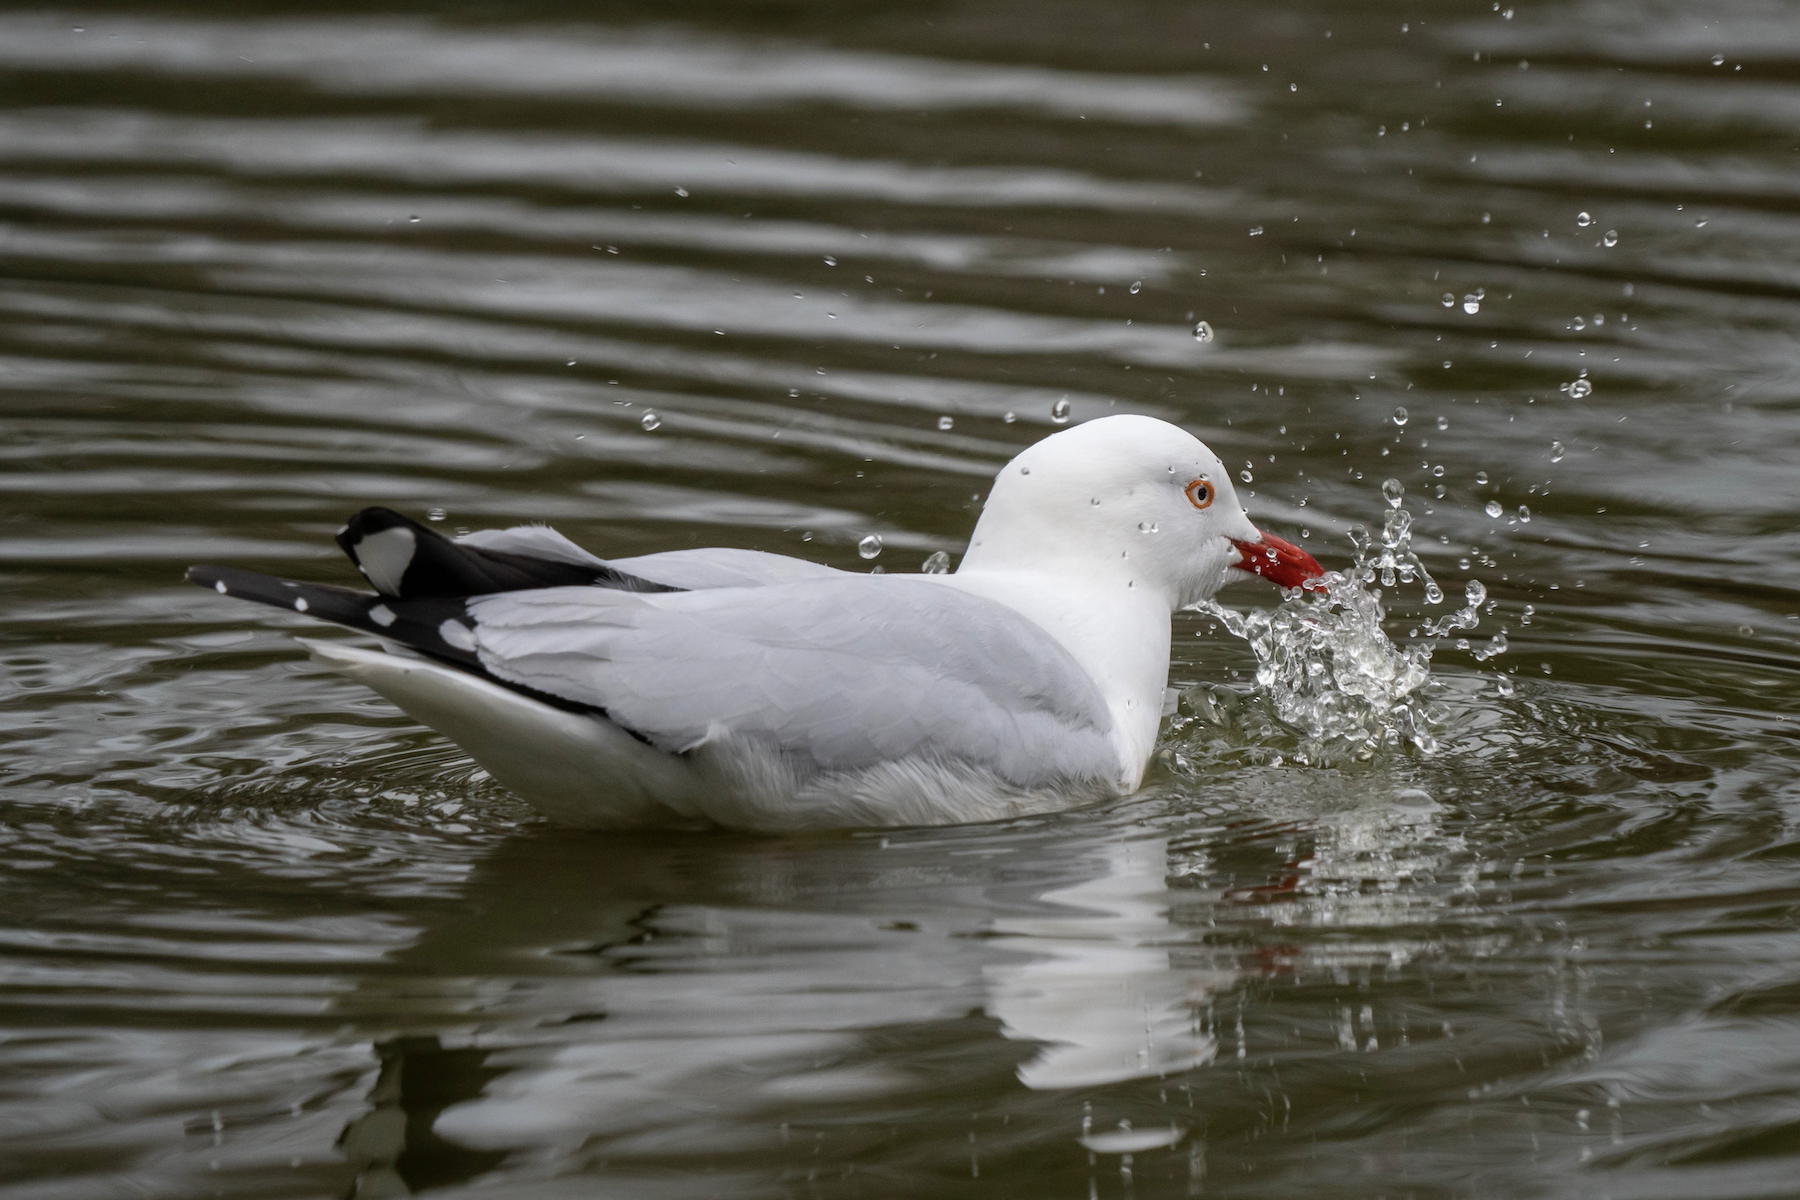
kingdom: Animalia
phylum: Chordata
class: Aves
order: Charadriiformes
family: Laridae
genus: Chroicocephalus
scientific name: Chroicocephalus novaehollandiae
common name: Silver gull
